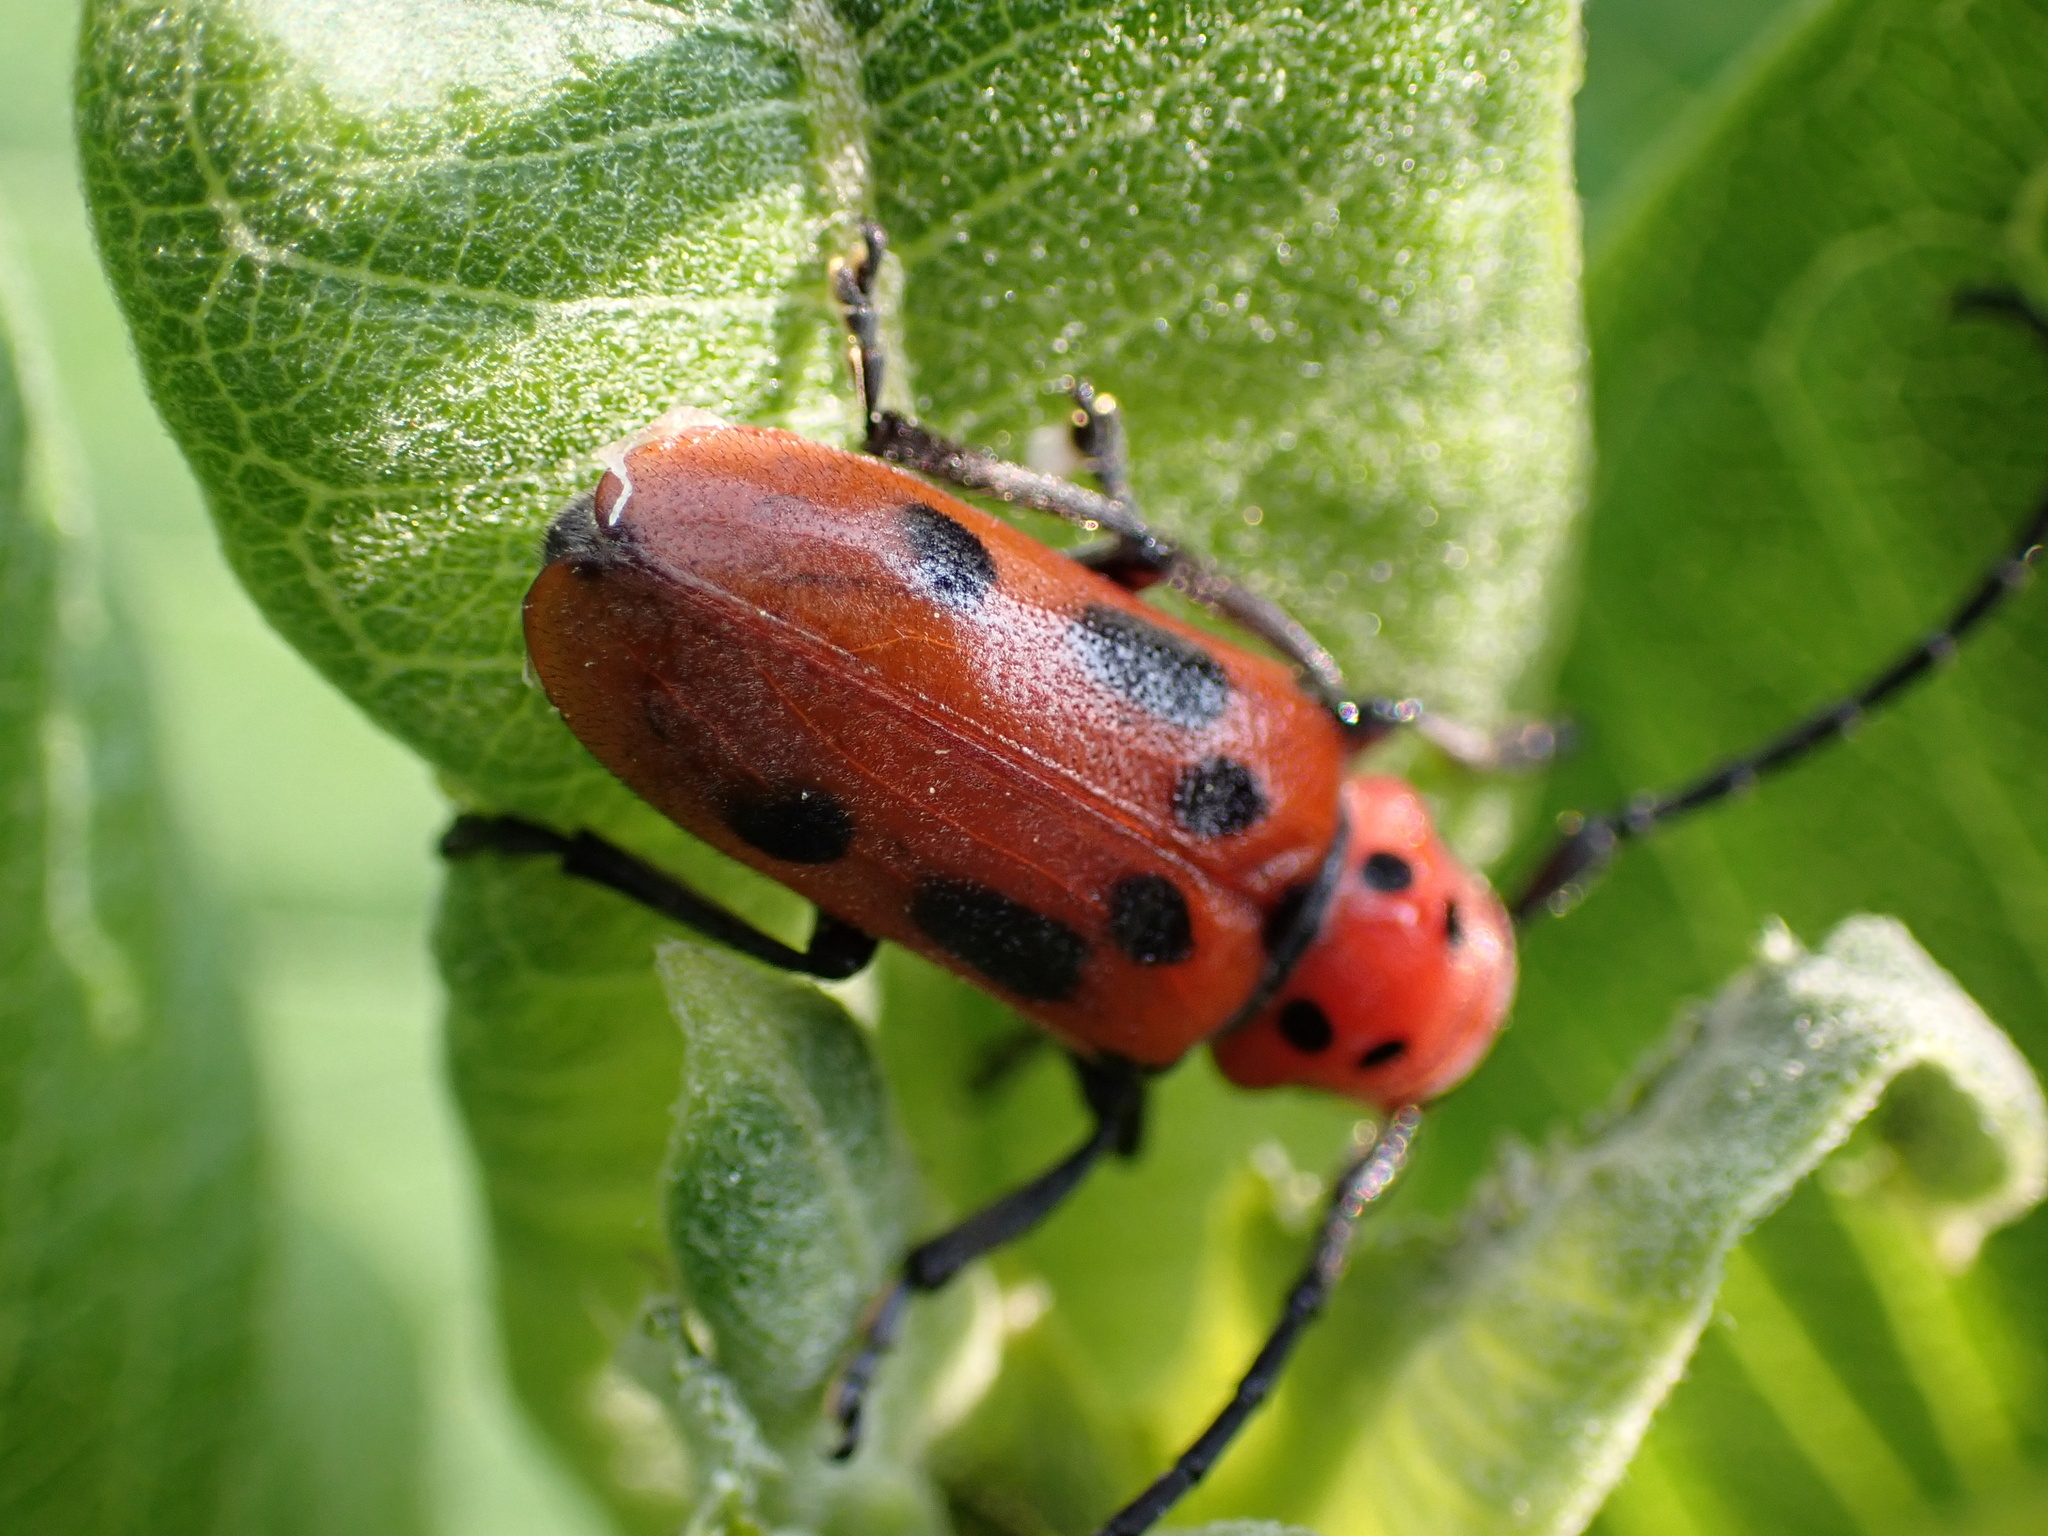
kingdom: Animalia
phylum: Arthropoda
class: Insecta
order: Coleoptera
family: Cerambycidae
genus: Tetraopes
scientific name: Tetraopes tetrophthalmus
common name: Red milkweed beetle
